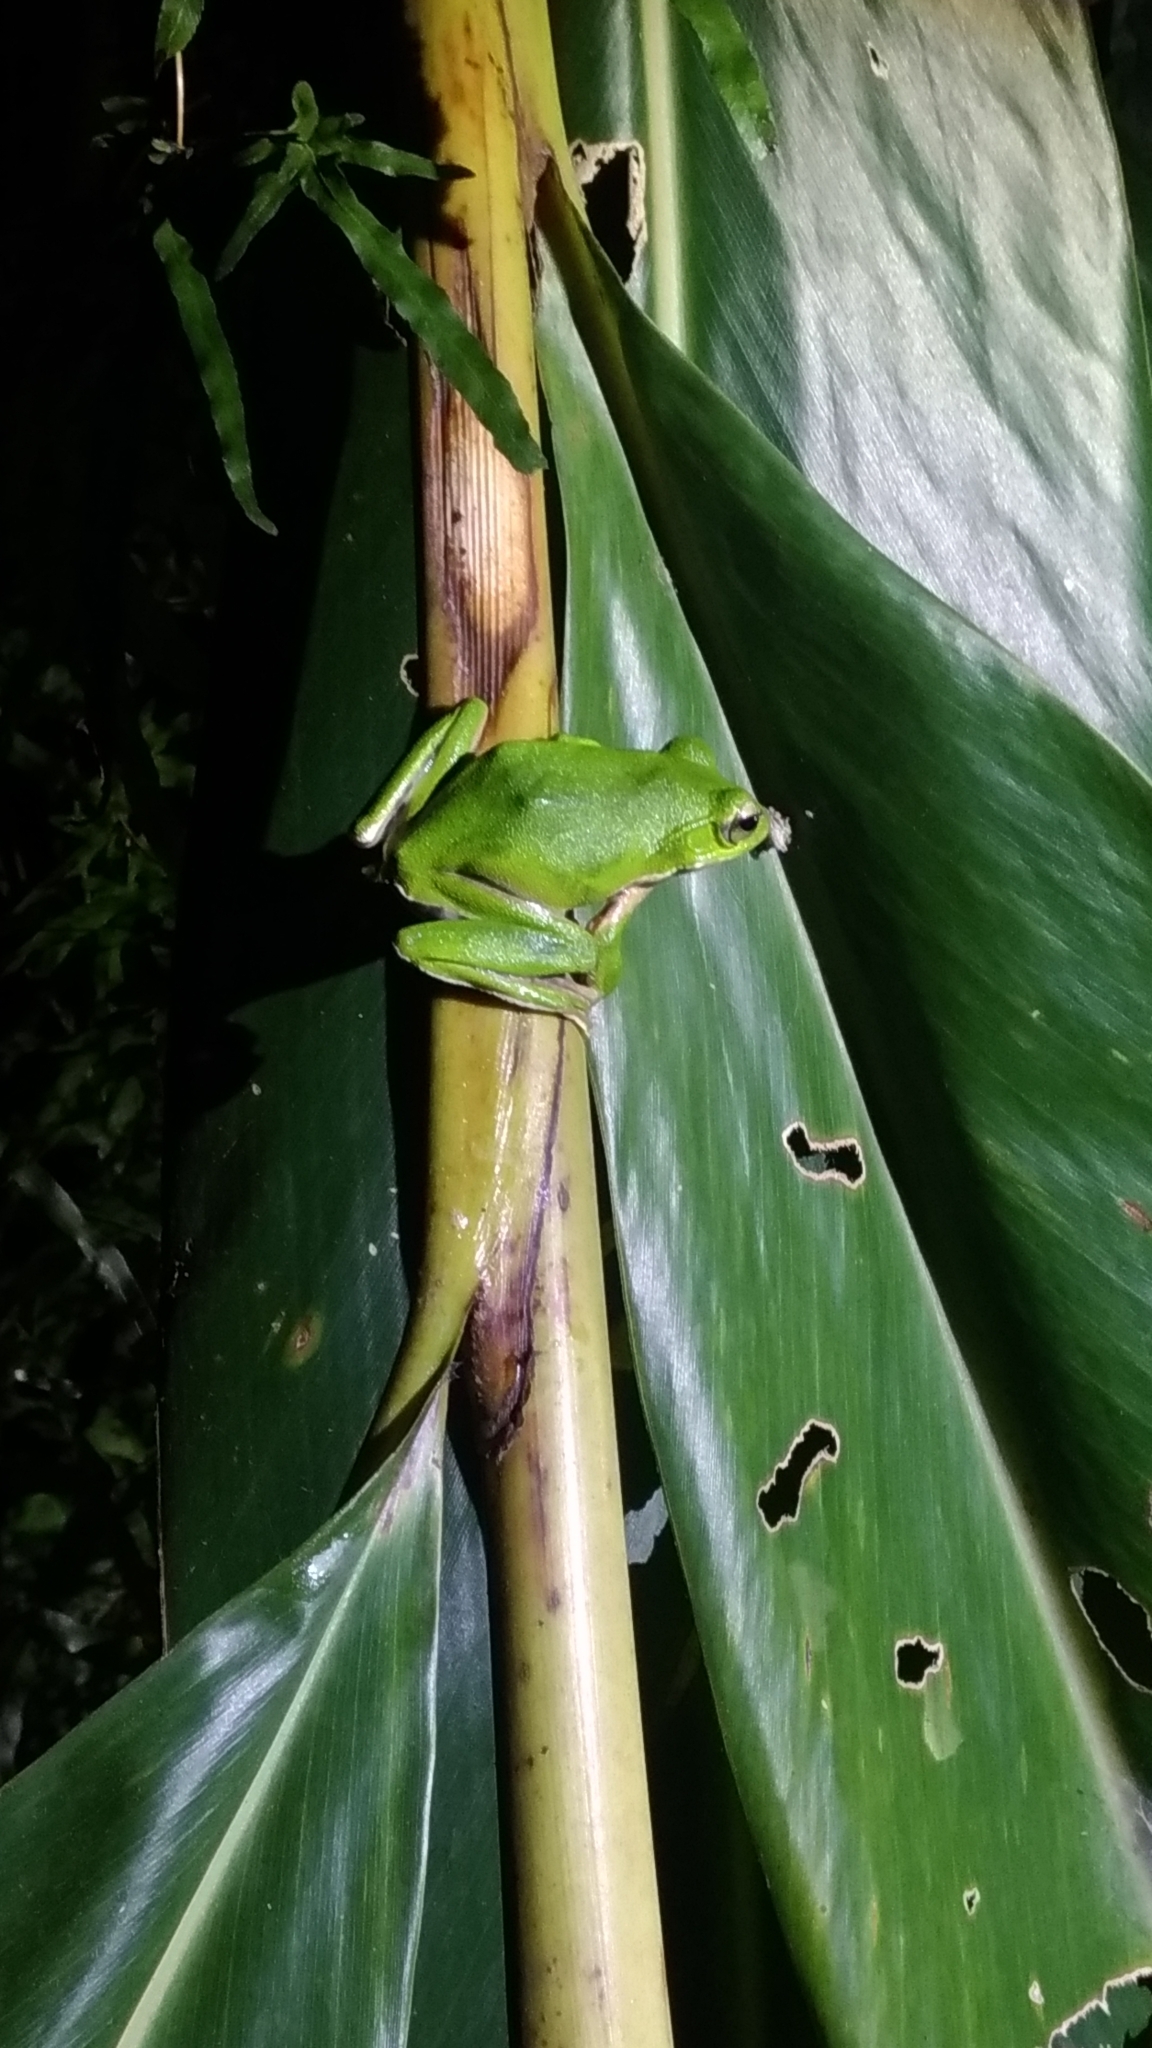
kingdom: Animalia
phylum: Chordata
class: Amphibia
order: Anura
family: Rhacophoridae
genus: Zhangixalus
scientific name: Zhangixalus prasinatus
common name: Tributary flying frog
